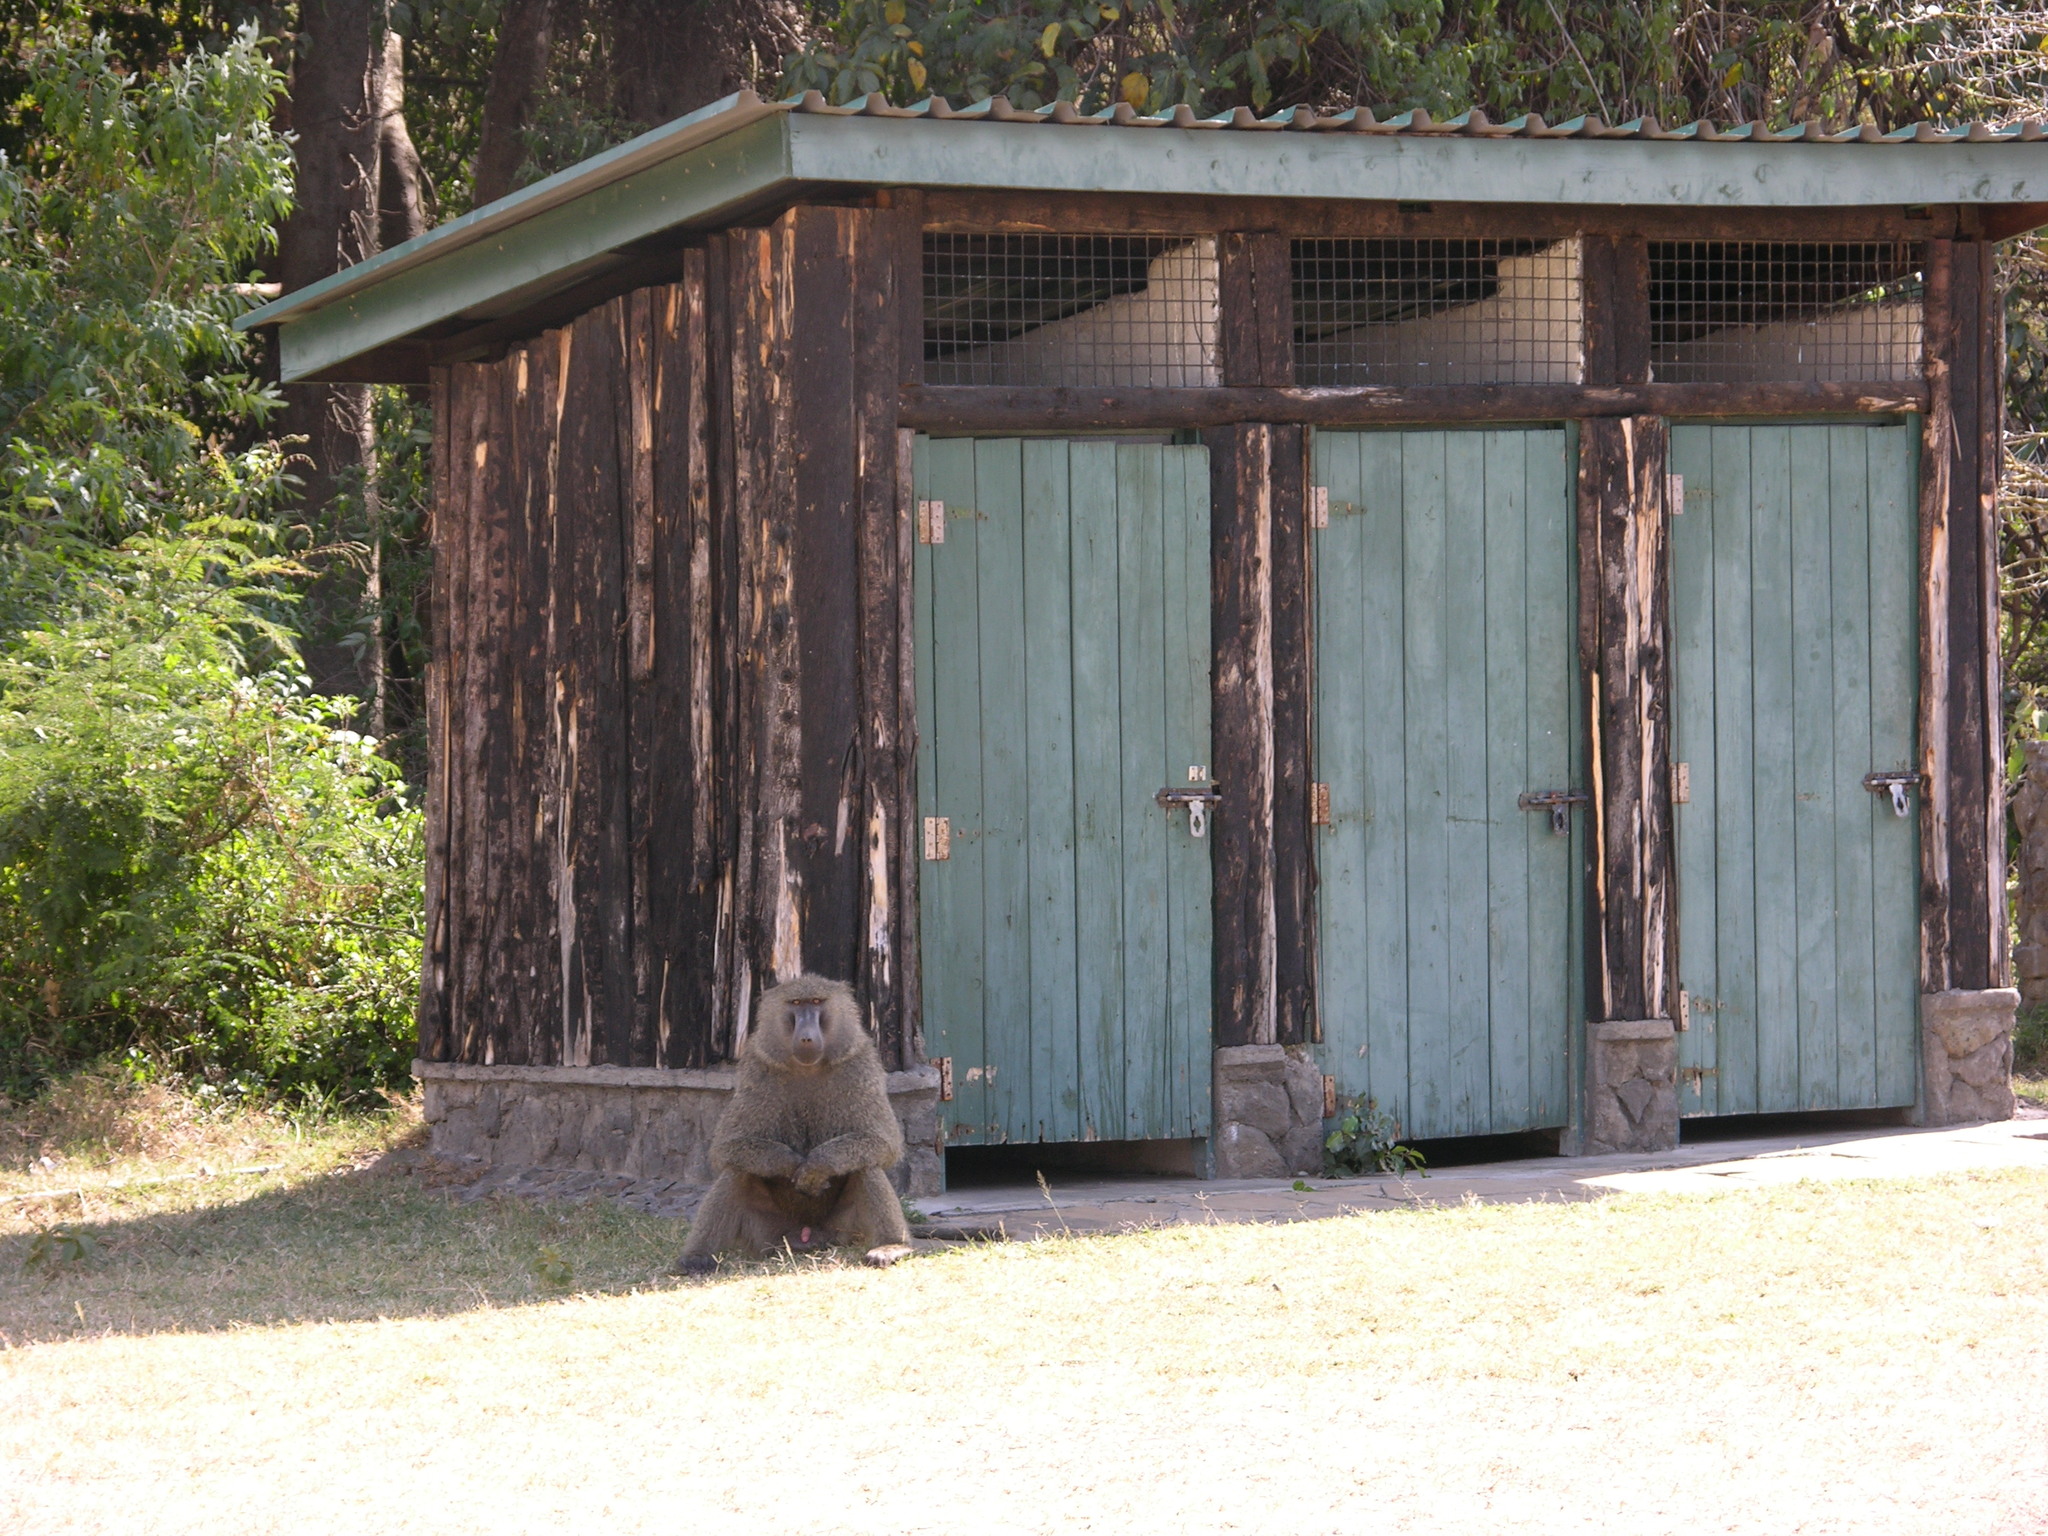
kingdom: Animalia
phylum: Chordata
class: Mammalia
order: Primates
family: Cercopithecidae
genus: Papio
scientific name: Papio anubis
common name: Olive baboon
